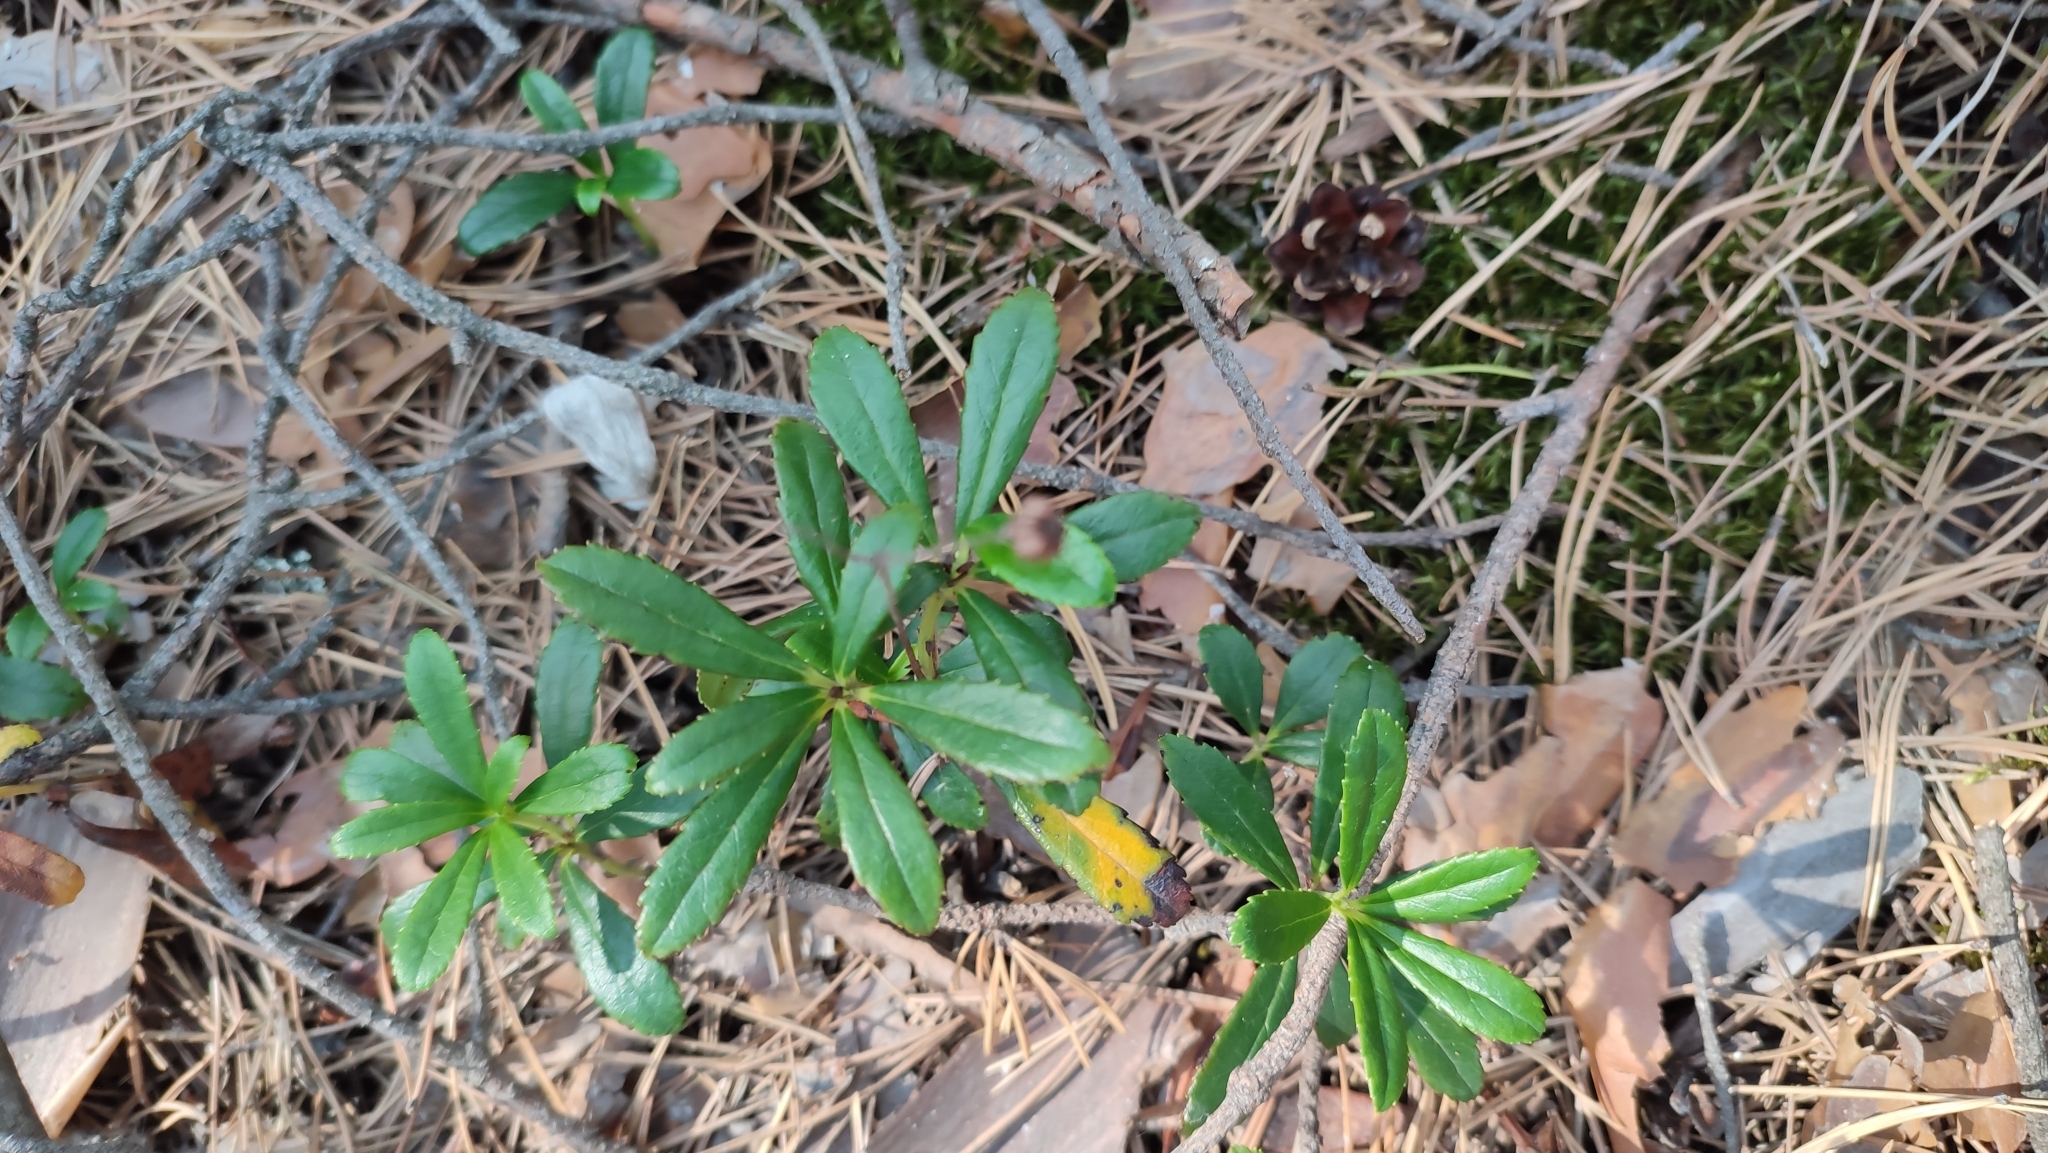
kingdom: Plantae
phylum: Tracheophyta
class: Magnoliopsida
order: Ericales
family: Ericaceae
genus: Chimaphila
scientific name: Chimaphila umbellata
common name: Pipsissewa
